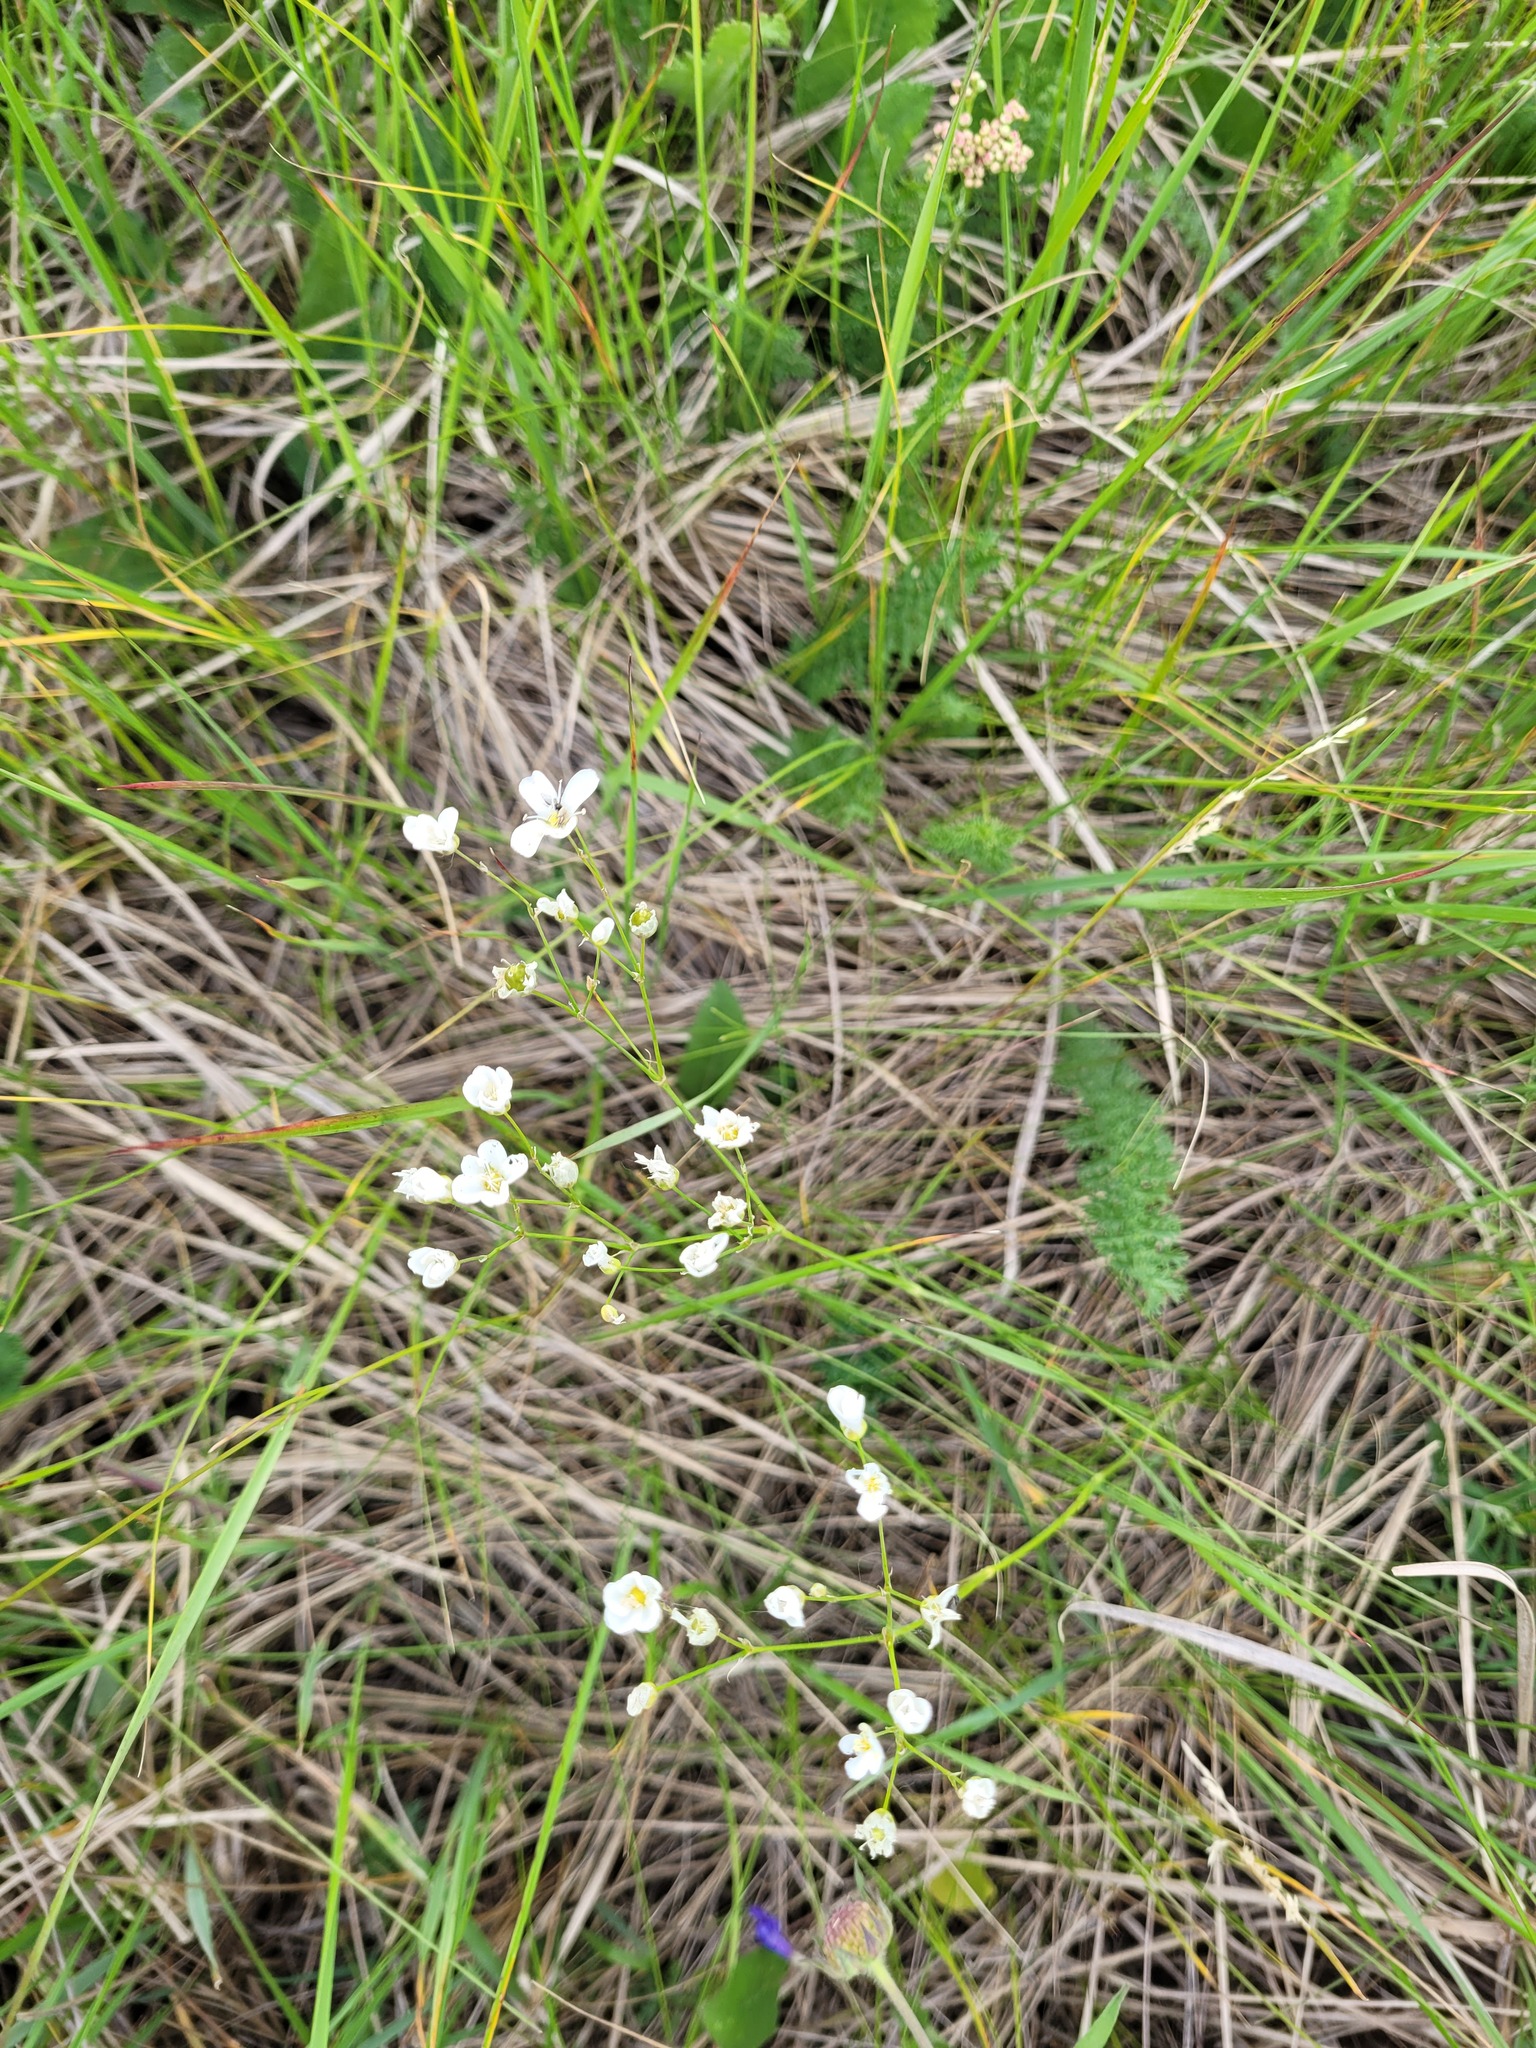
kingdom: Plantae
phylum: Tracheophyta
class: Magnoliopsida
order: Caryophyllales
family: Caryophyllaceae
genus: Eremogone
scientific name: Eremogone saxatilis
